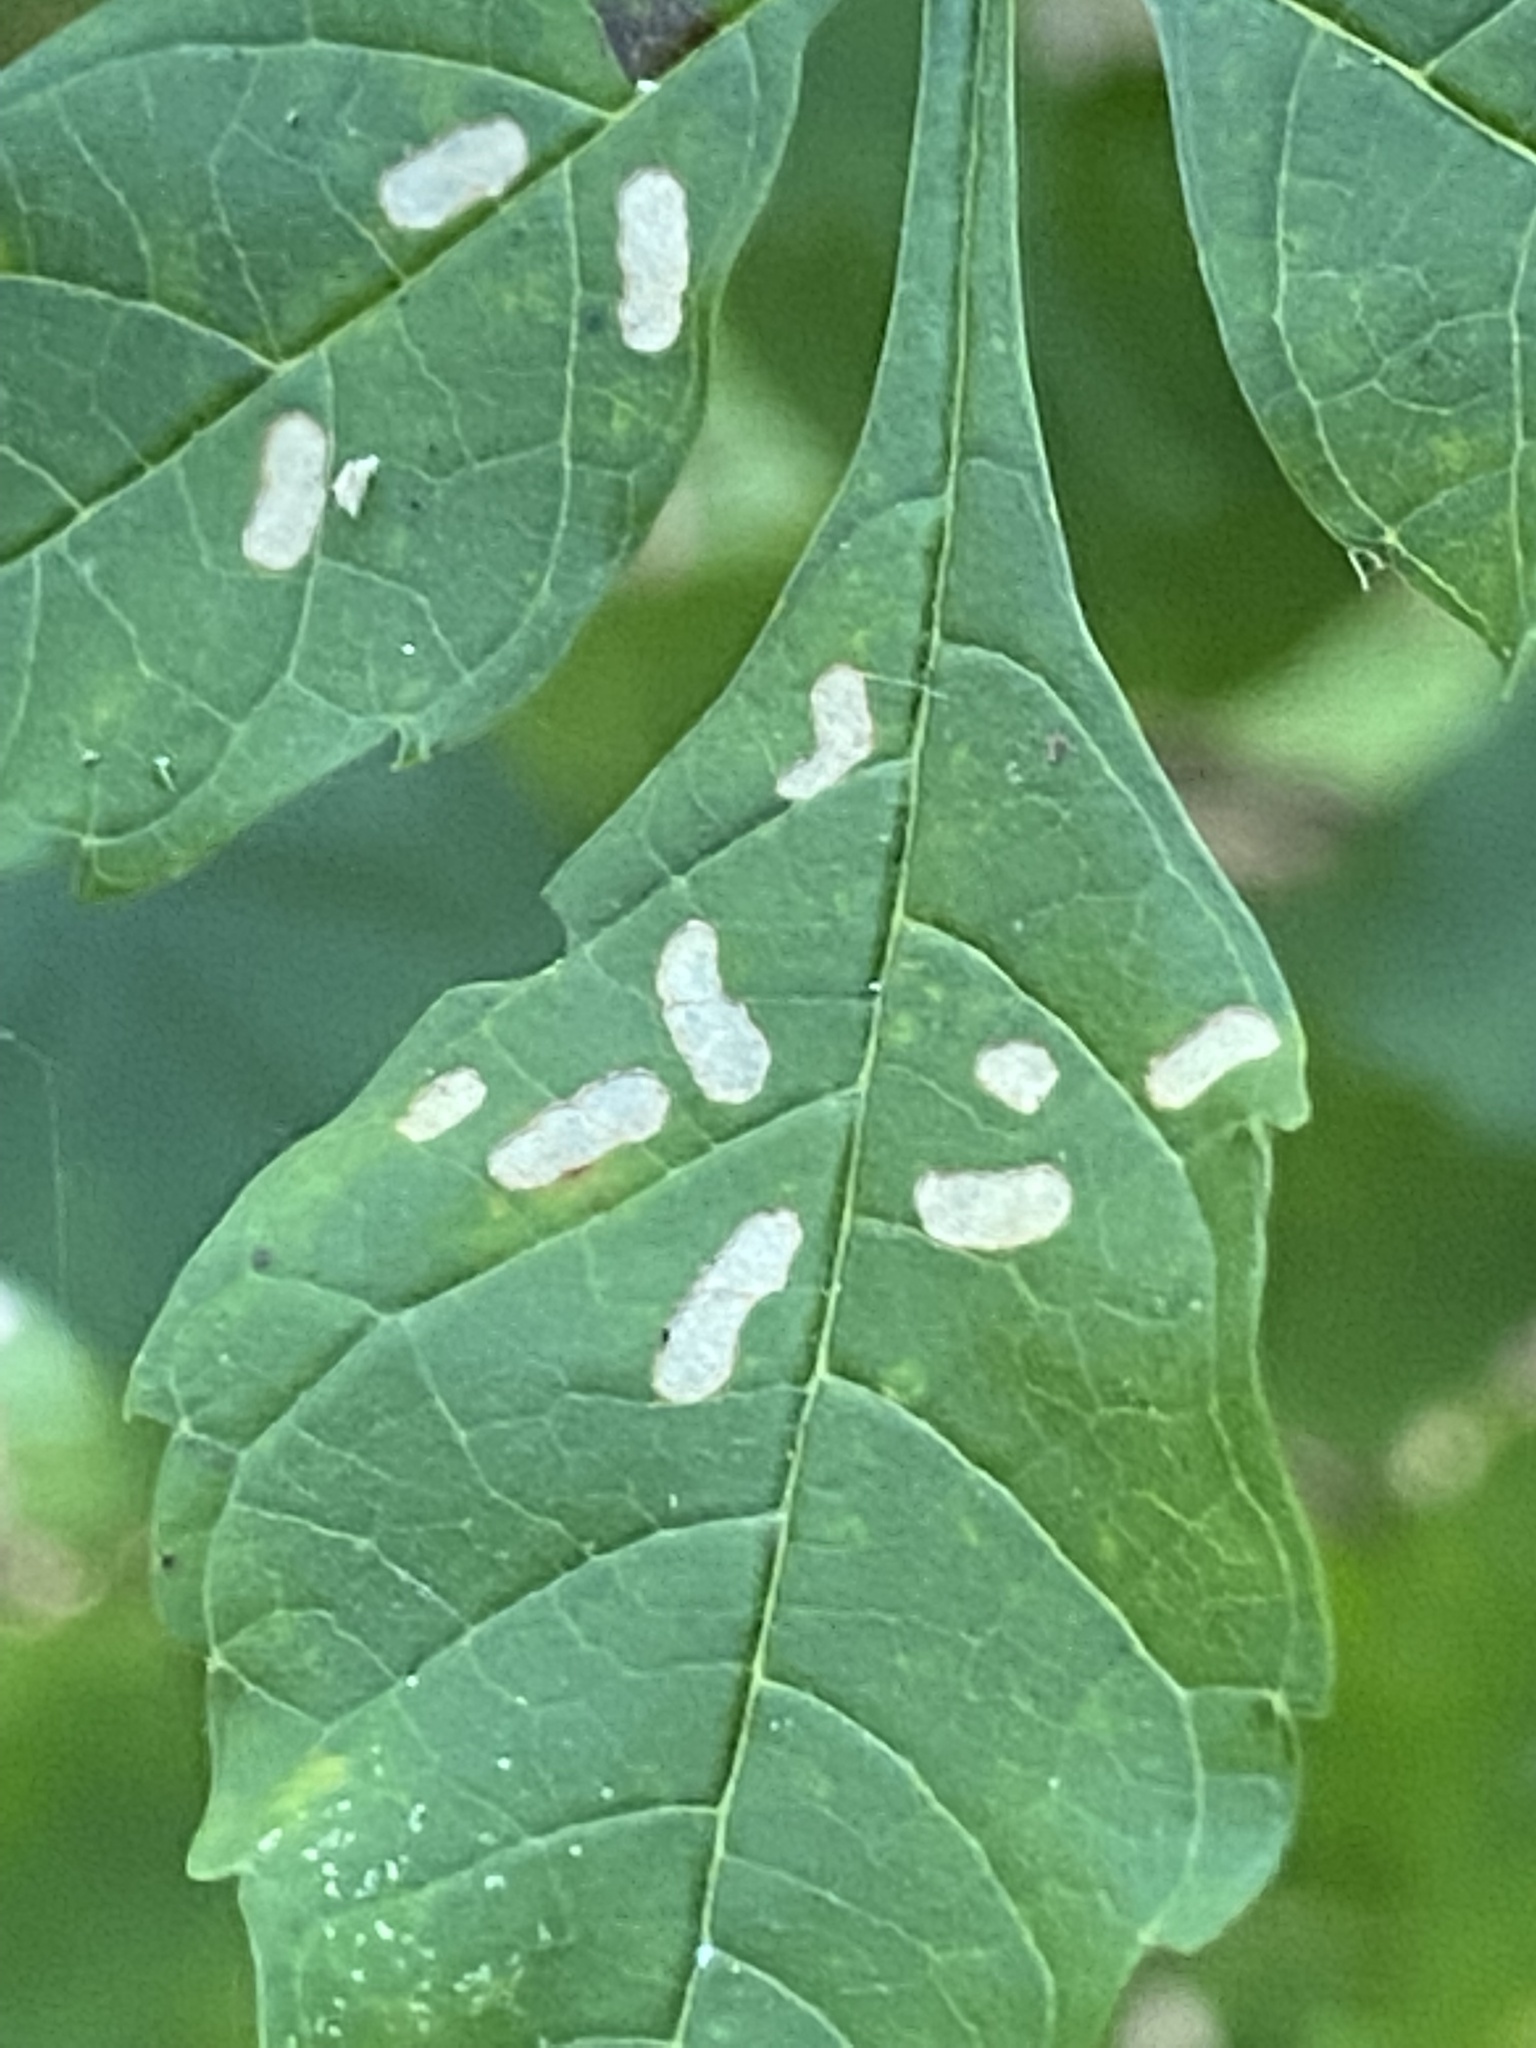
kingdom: Animalia
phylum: Arthropoda
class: Insecta
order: Coleoptera
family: Chrysomelidae
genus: Octotoma
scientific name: Octotoma plicatula
